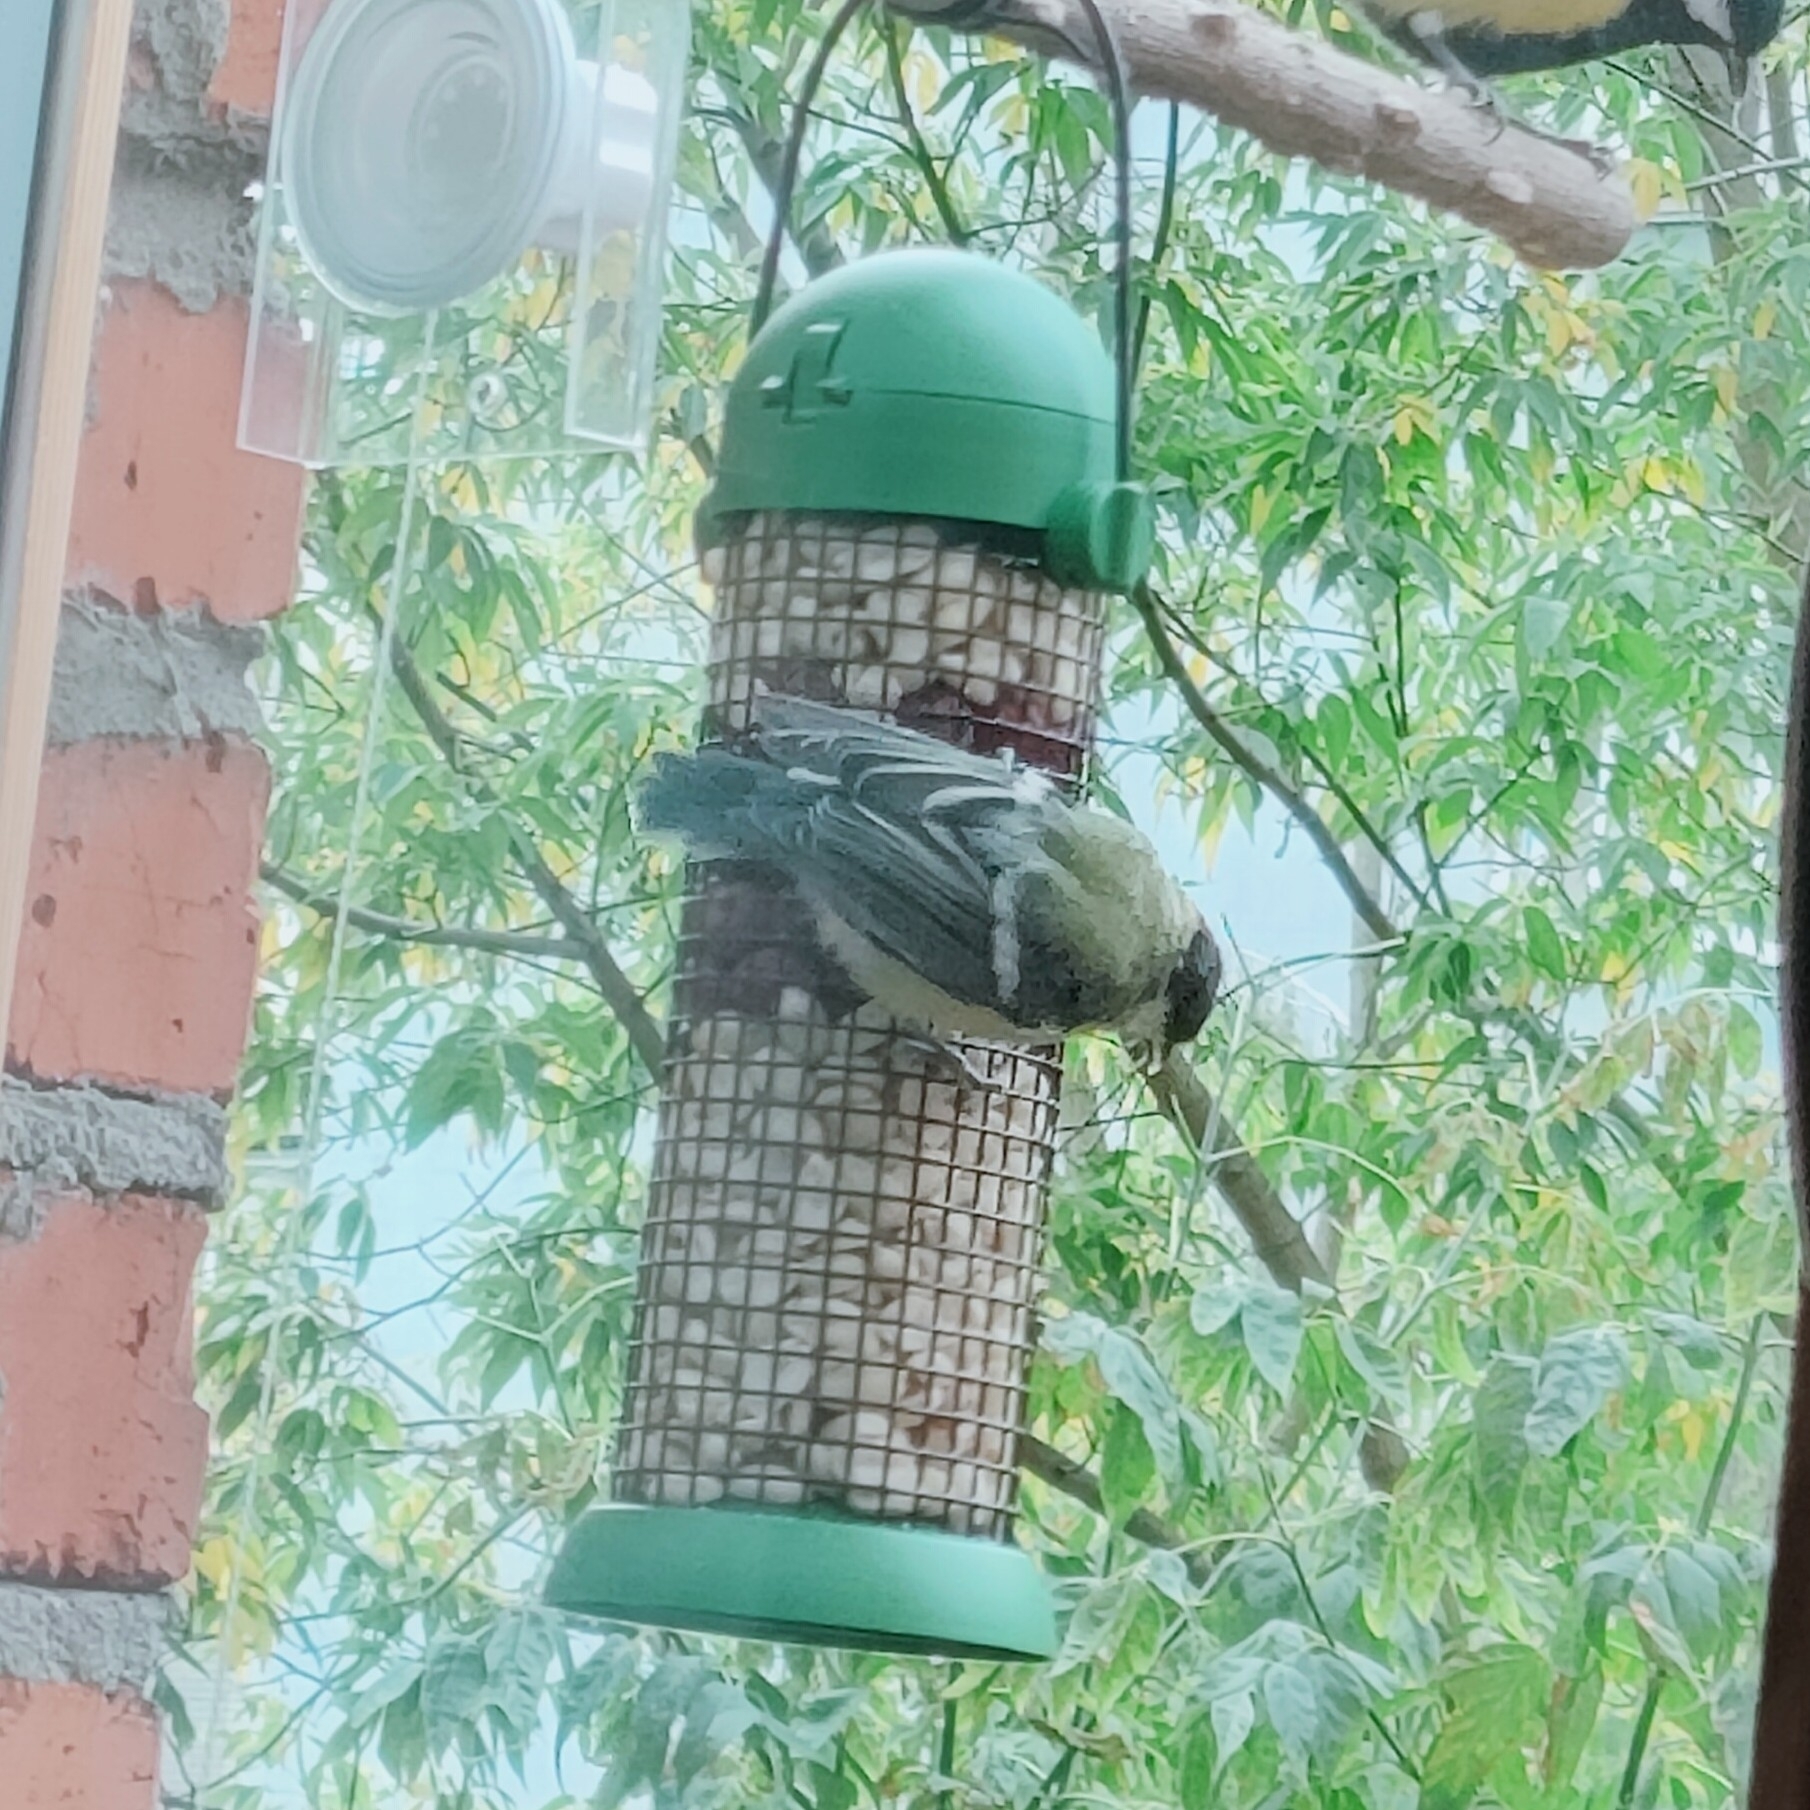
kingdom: Animalia
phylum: Chordata
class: Aves
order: Passeriformes
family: Paridae
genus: Parus
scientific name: Parus major
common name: Great tit
